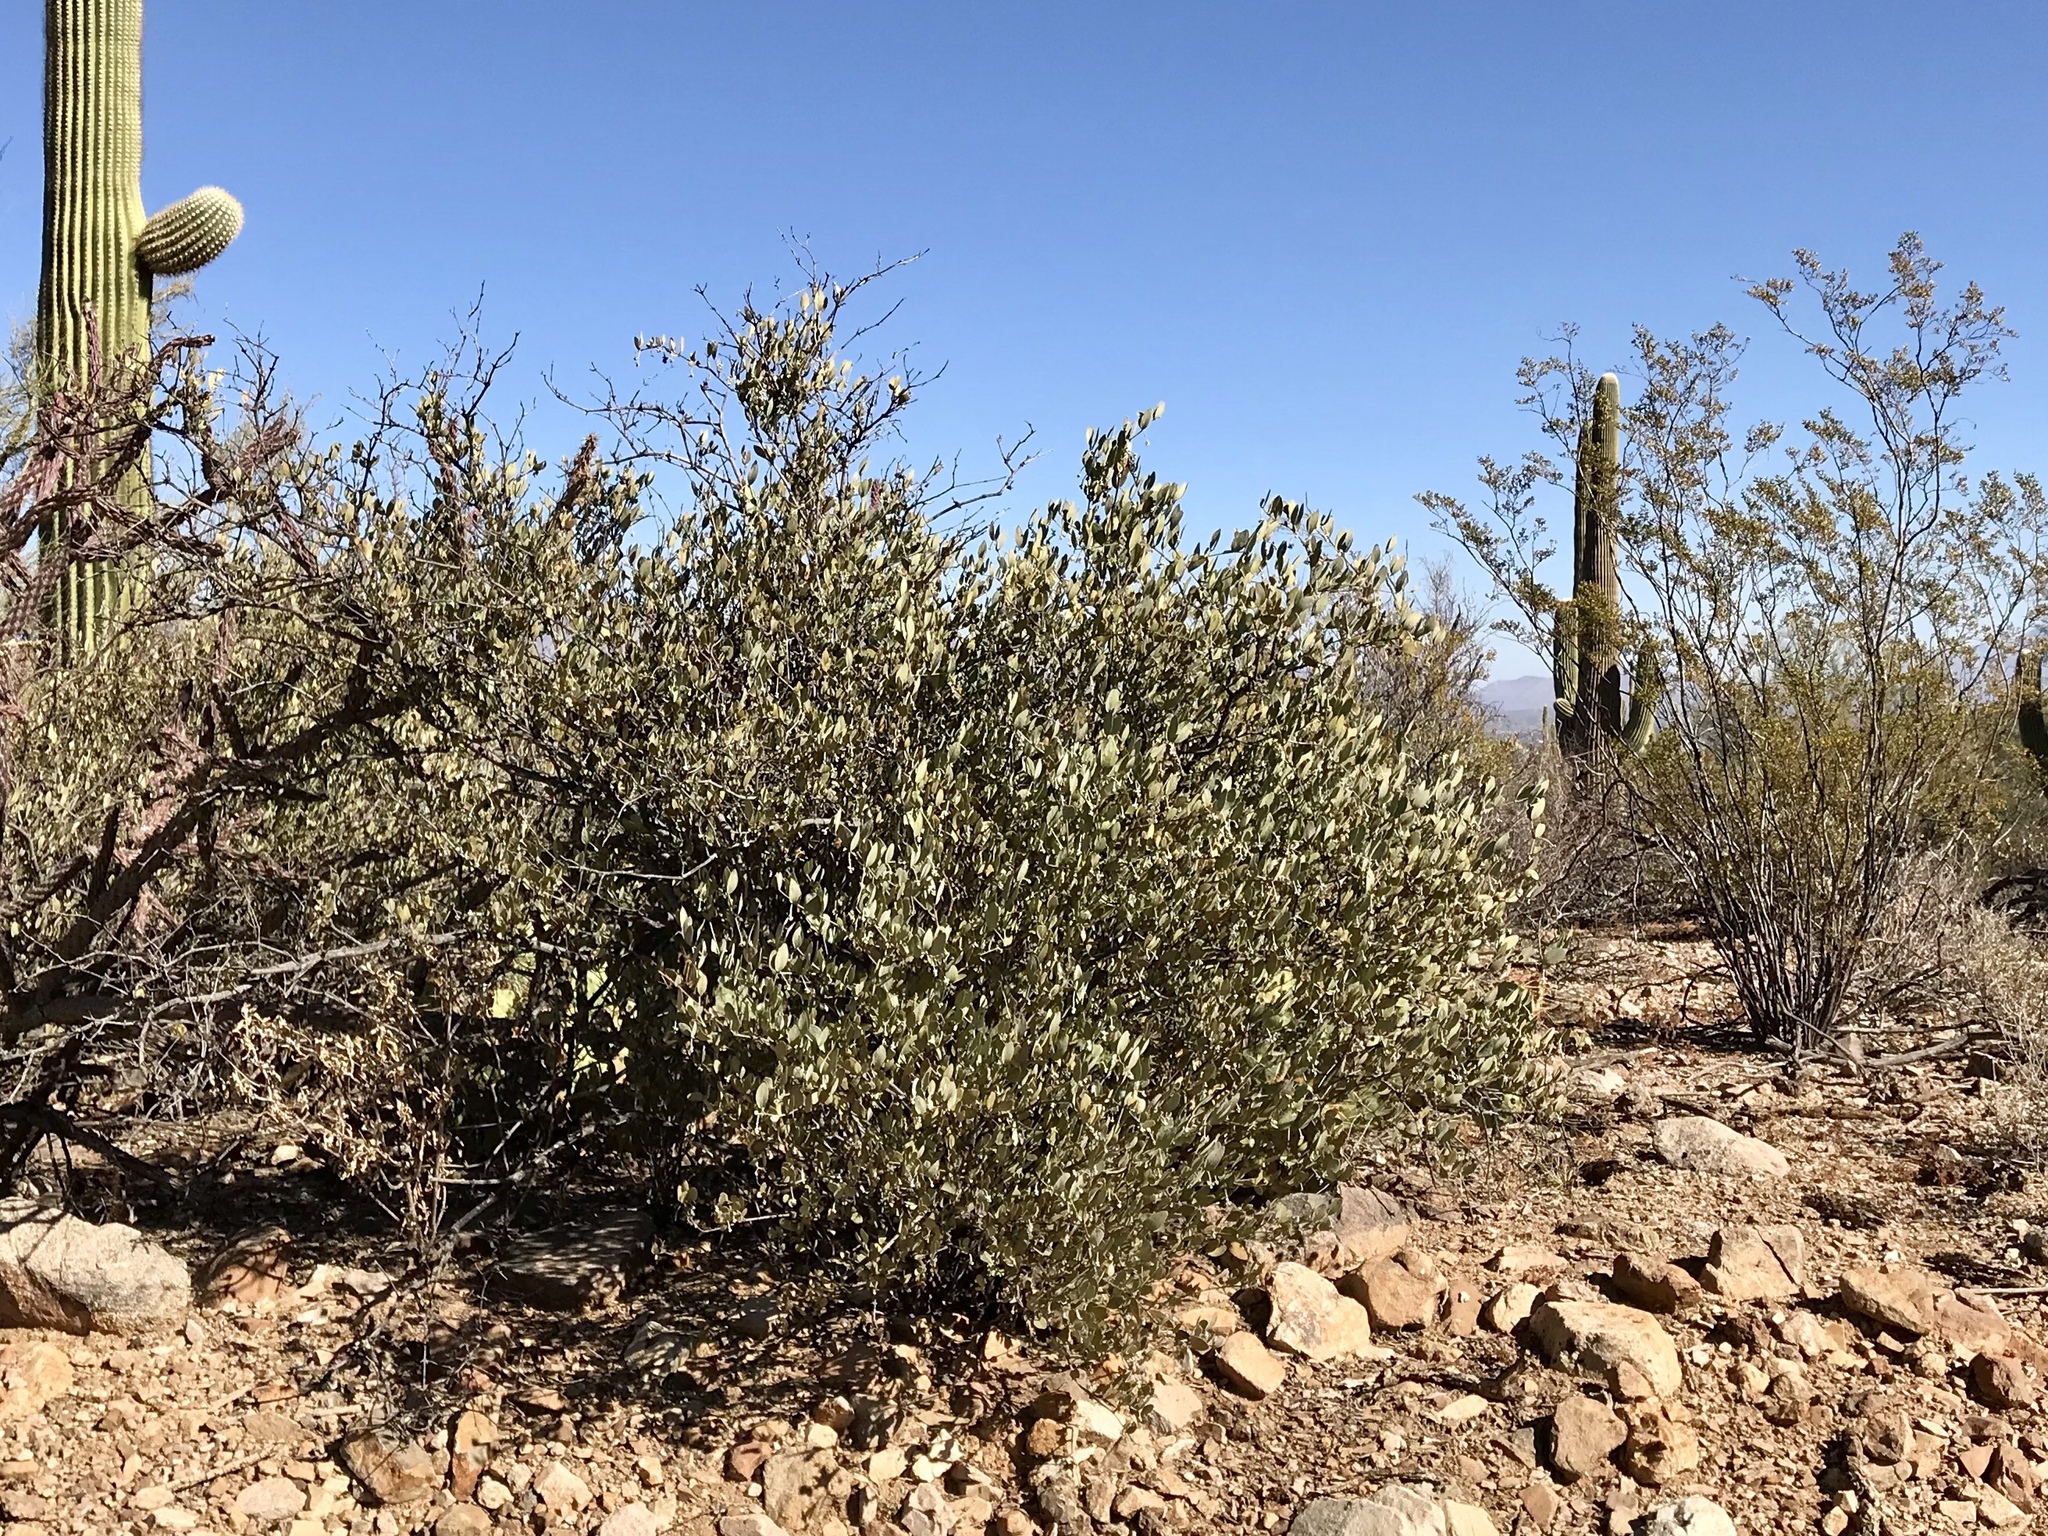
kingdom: Plantae
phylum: Tracheophyta
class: Magnoliopsida
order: Caryophyllales
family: Simmondsiaceae
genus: Simmondsia
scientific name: Simmondsia chinensis
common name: Jojoba
